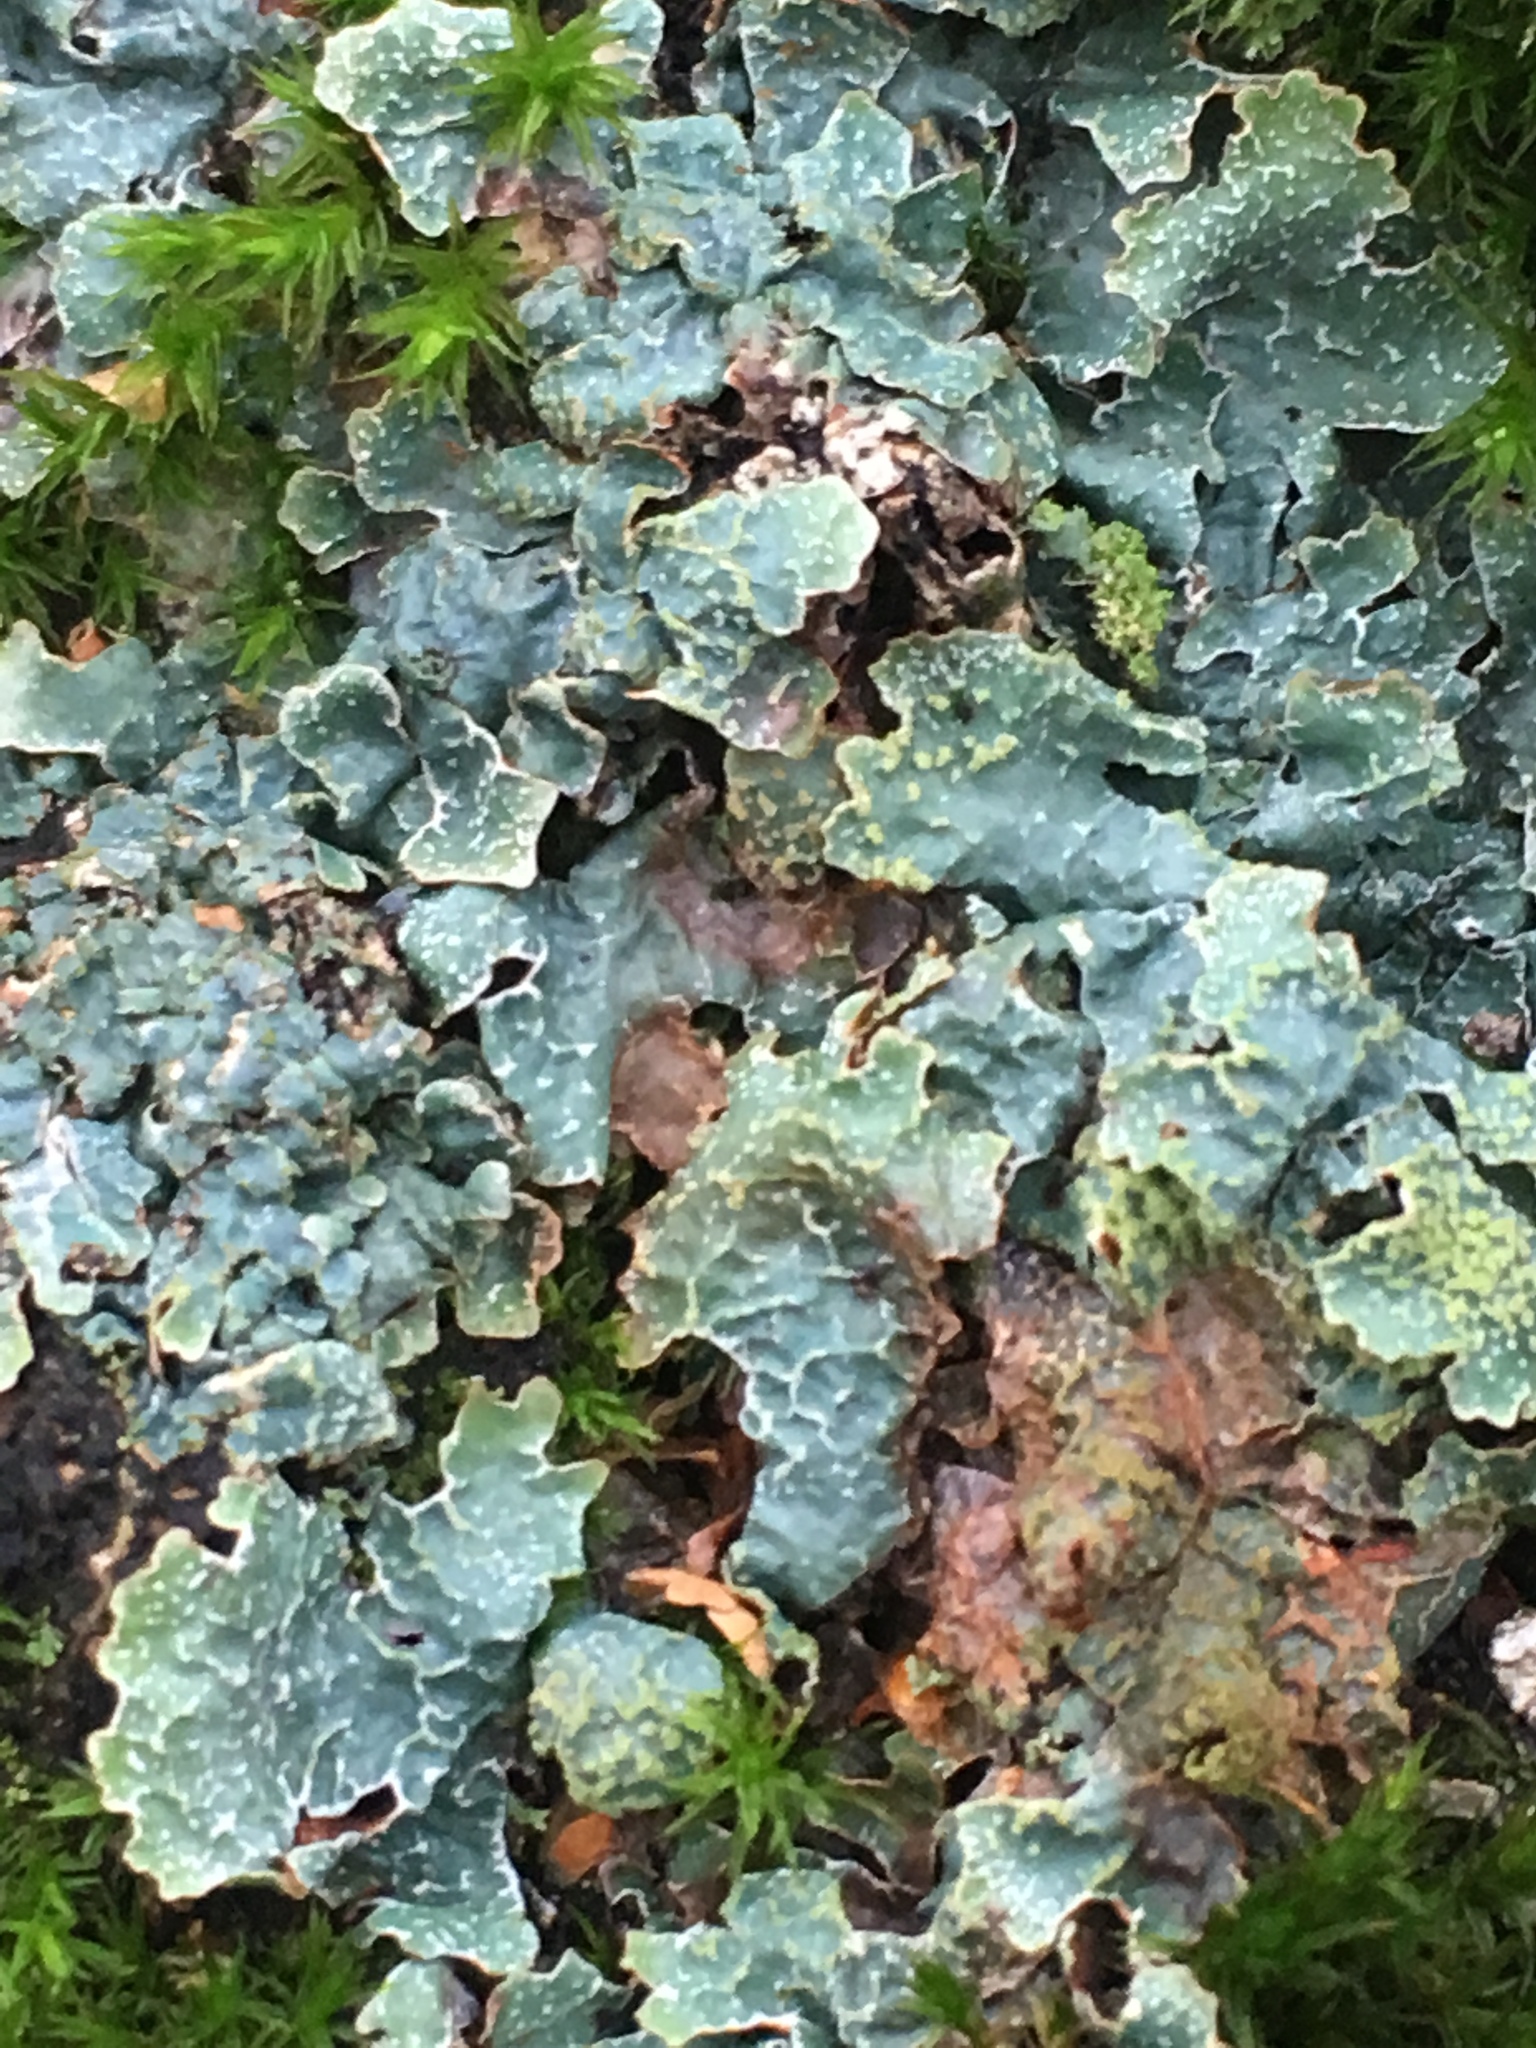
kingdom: Fungi
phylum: Ascomycota
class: Lecanoromycetes
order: Lecanorales
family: Parmeliaceae
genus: Parmelia
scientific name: Parmelia sulcata
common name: Netted shield lichen
